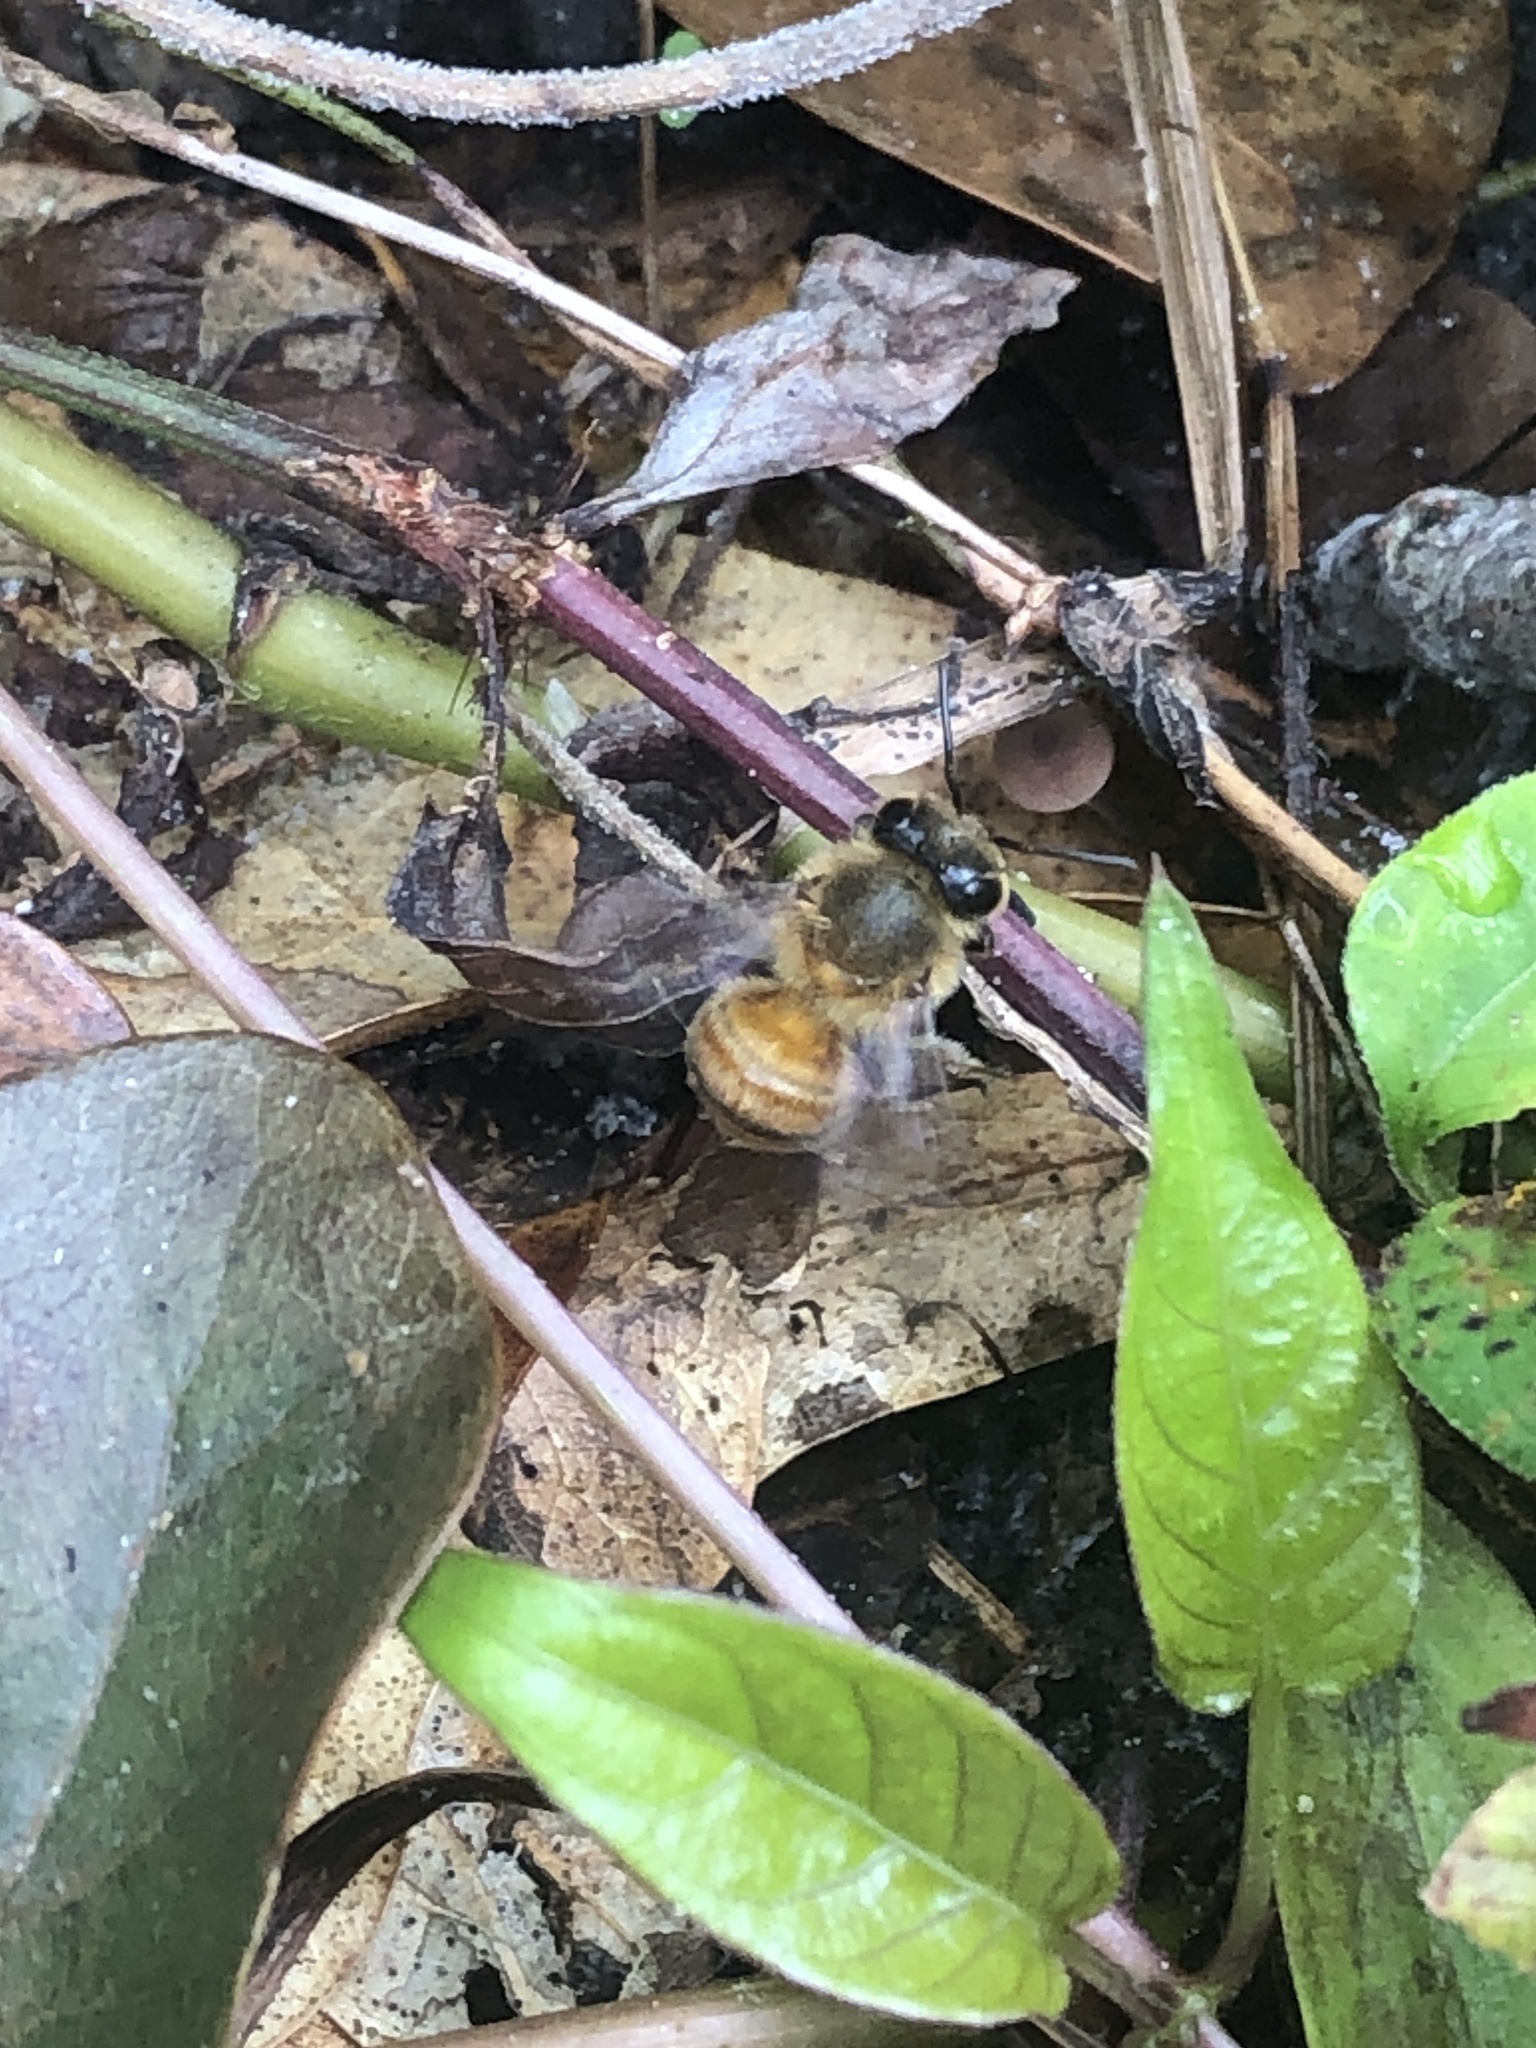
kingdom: Animalia
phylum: Arthropoda
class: Insecta
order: Hymenoptera
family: Apidae
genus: Apis
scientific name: Apis mellifera
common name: Honey bee
